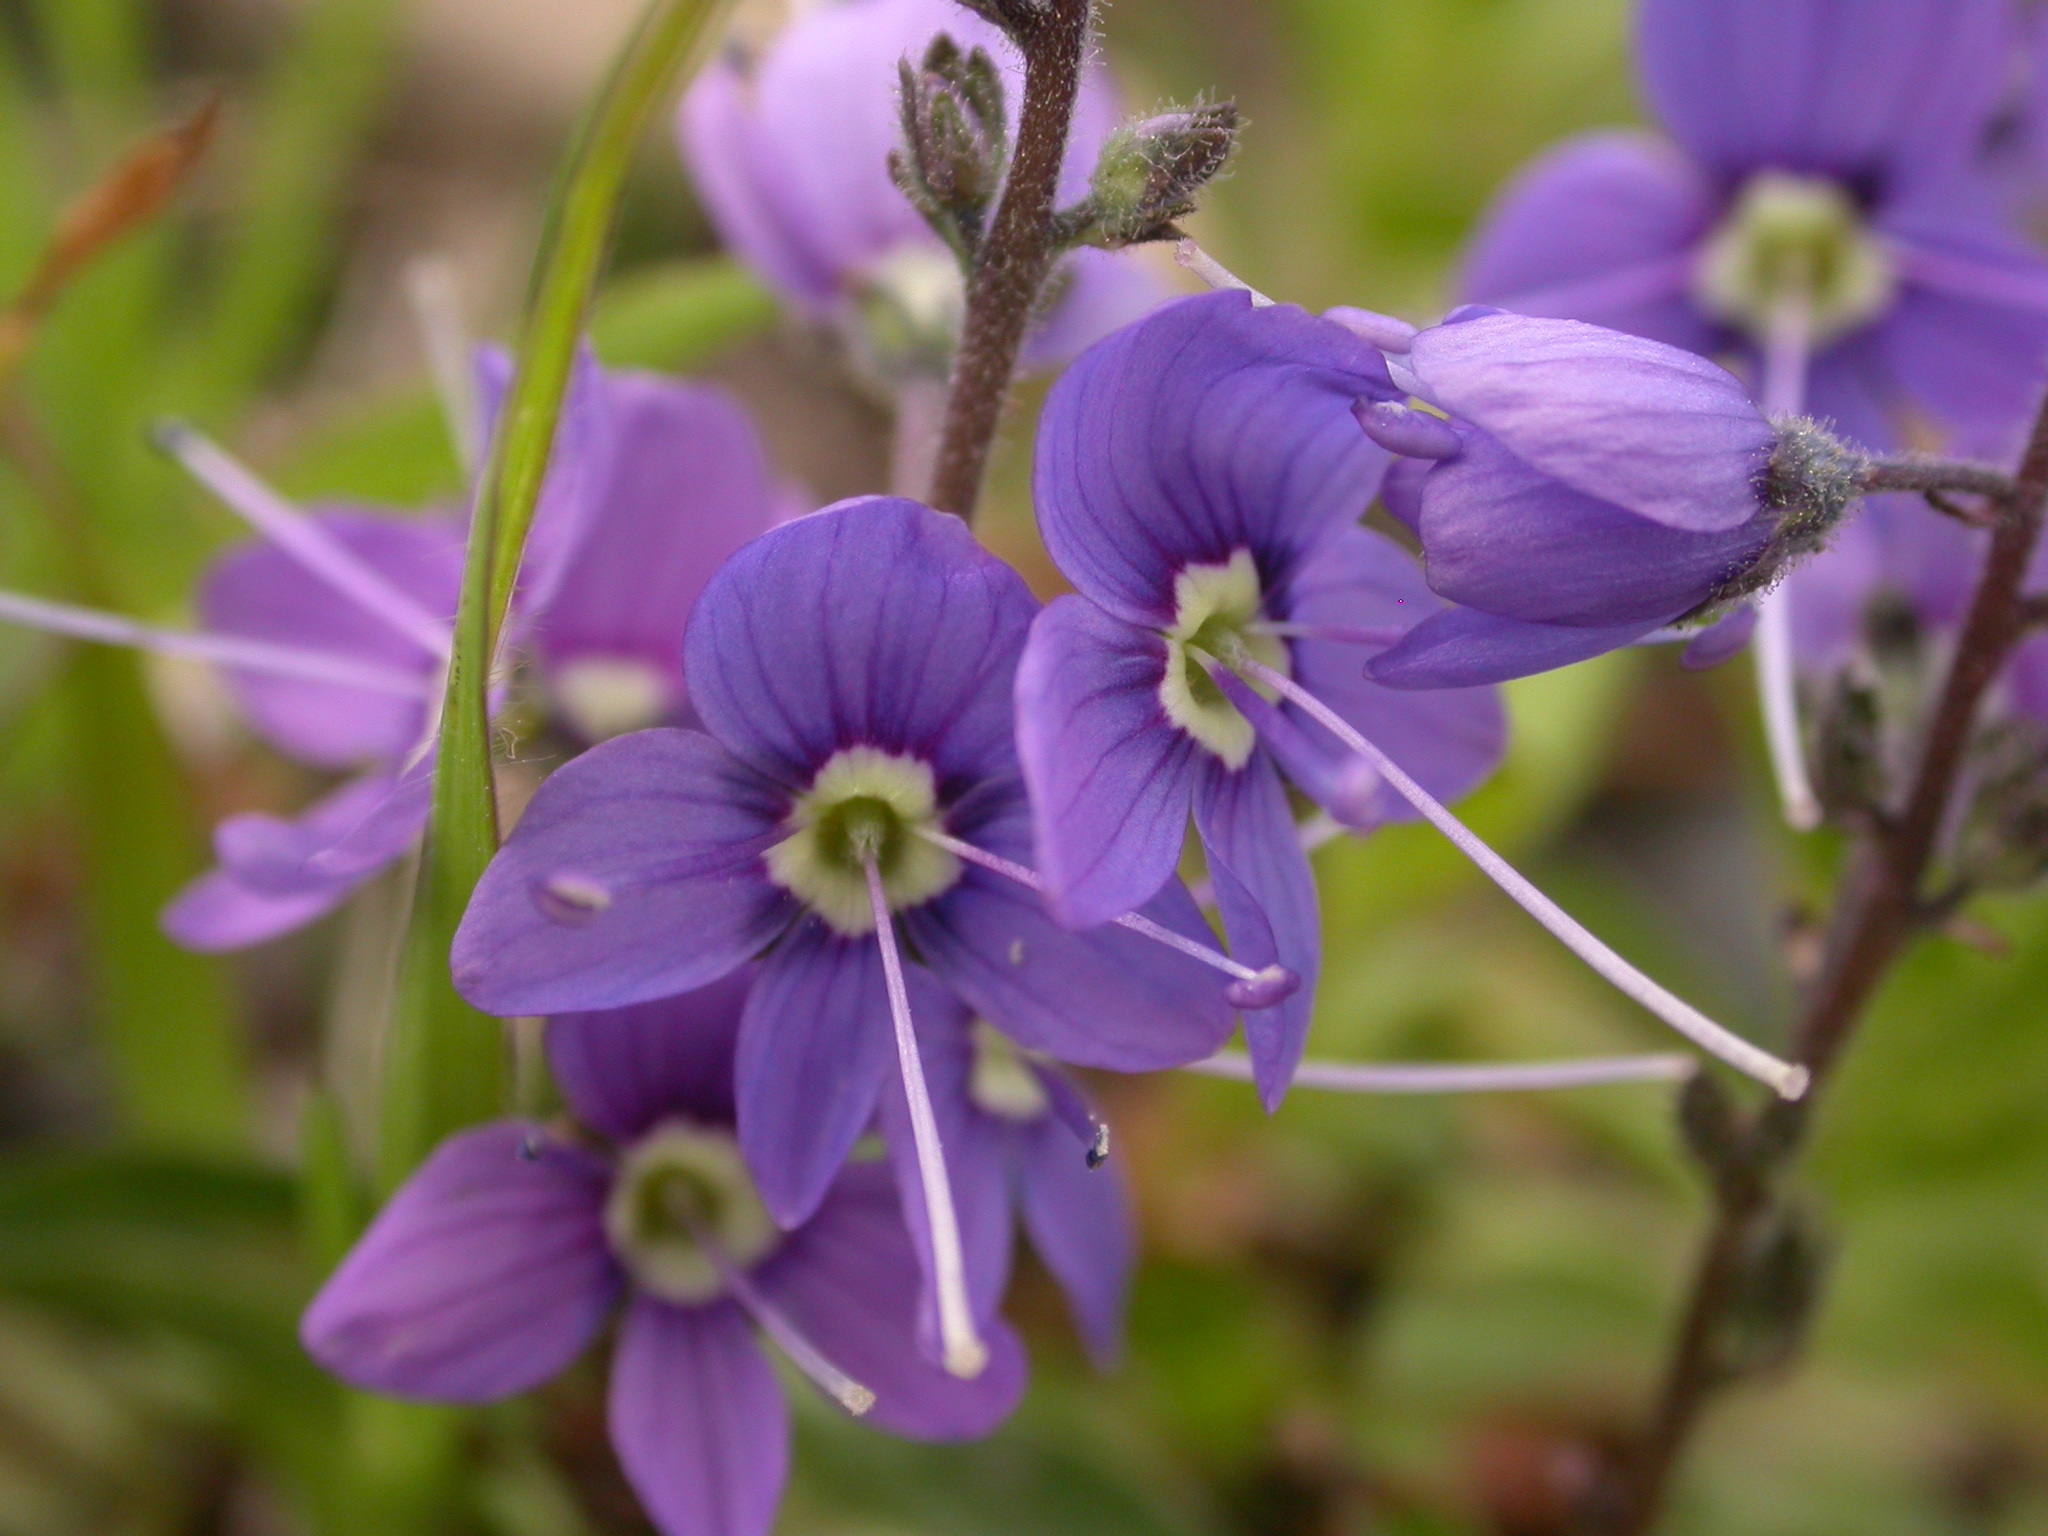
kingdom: Plantae
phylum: Tracheophyta
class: Magnoliopsida
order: Lamiales
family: Plantaginaceae
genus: Veronica
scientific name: Veronica cusickii
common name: Cusick's speedwell
